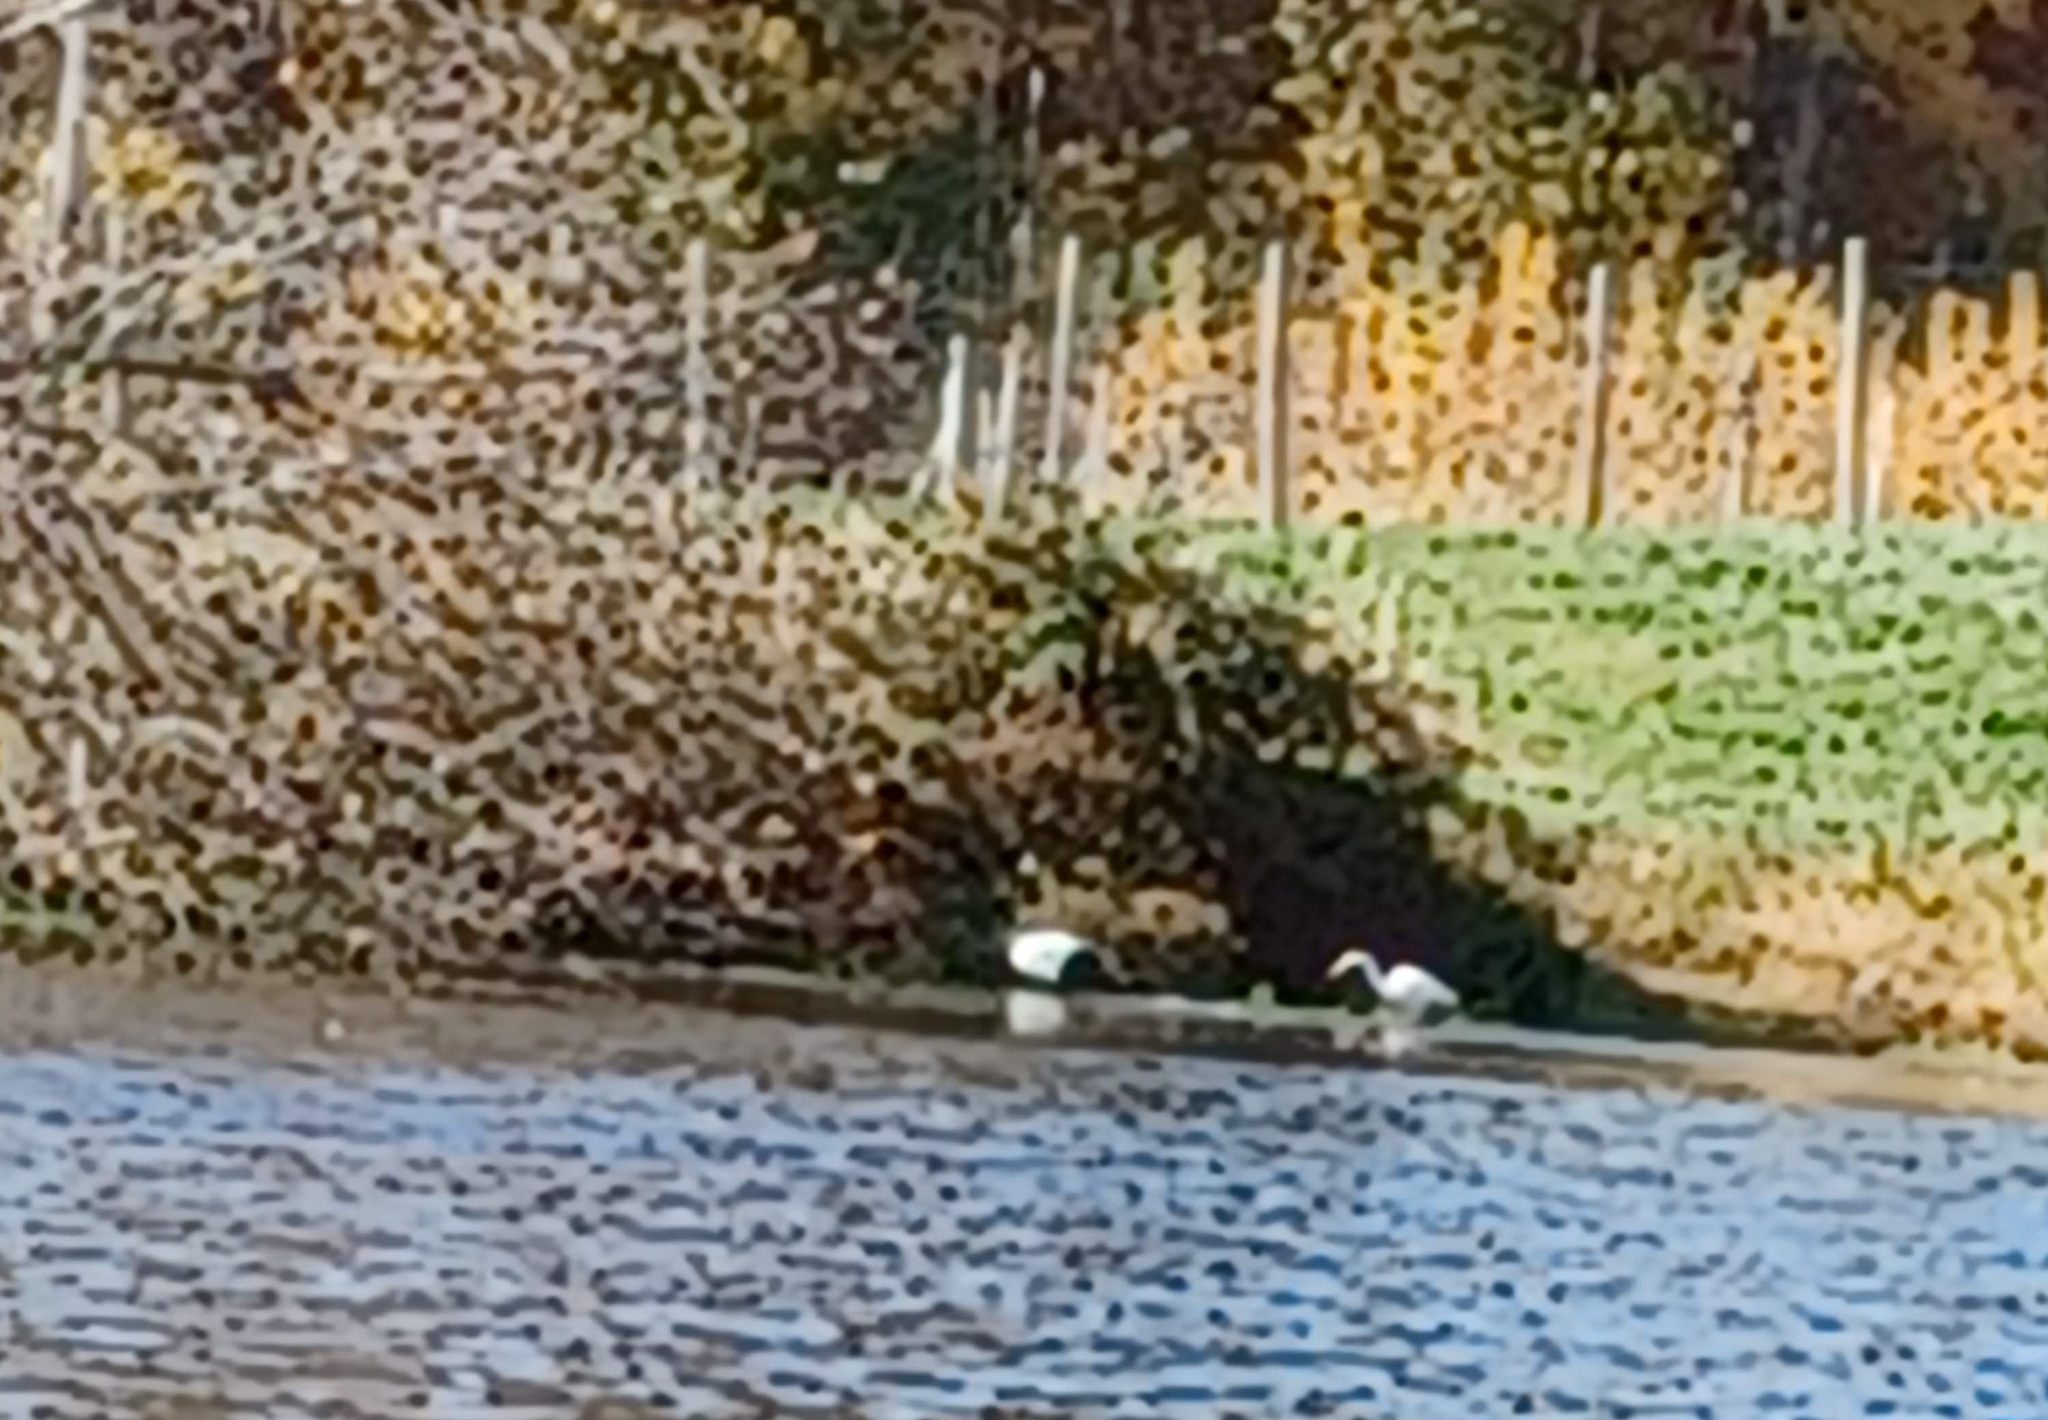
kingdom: Animalia
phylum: Chordata
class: Aves
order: Pelecaniformes
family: Ardeidae
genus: Ardea
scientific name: Ardea alba
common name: Great egret
